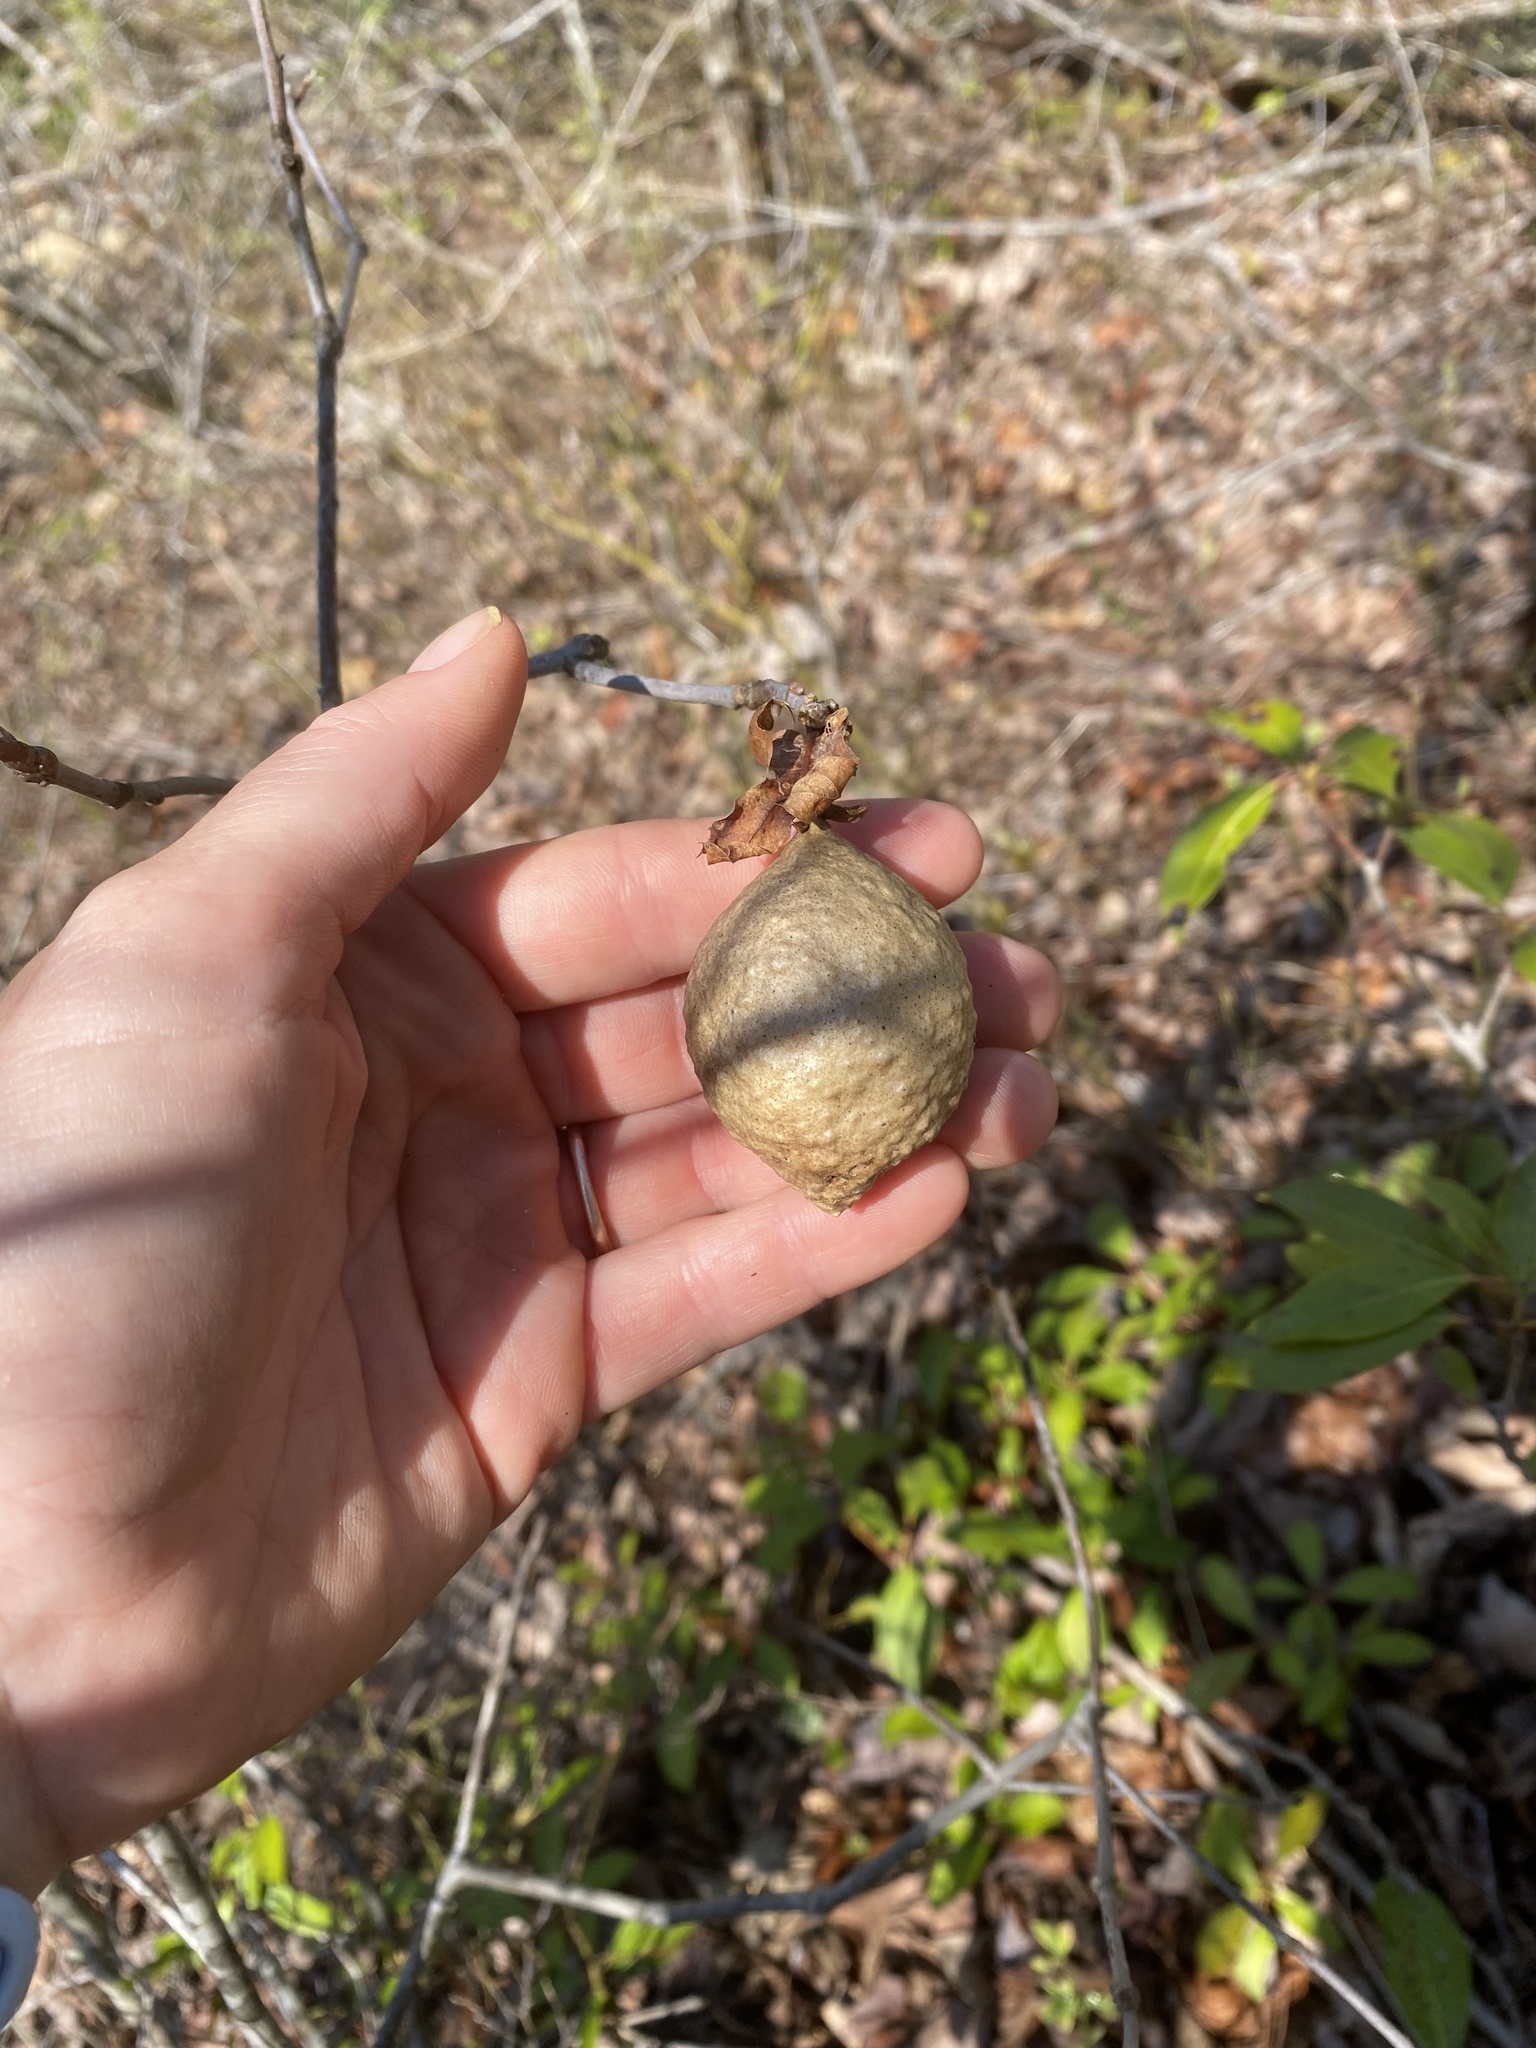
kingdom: Animalia
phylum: Arthropoda
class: Insecta
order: Hymenoptera
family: Cynipidae
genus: Amphibolips
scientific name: Amphibolips
